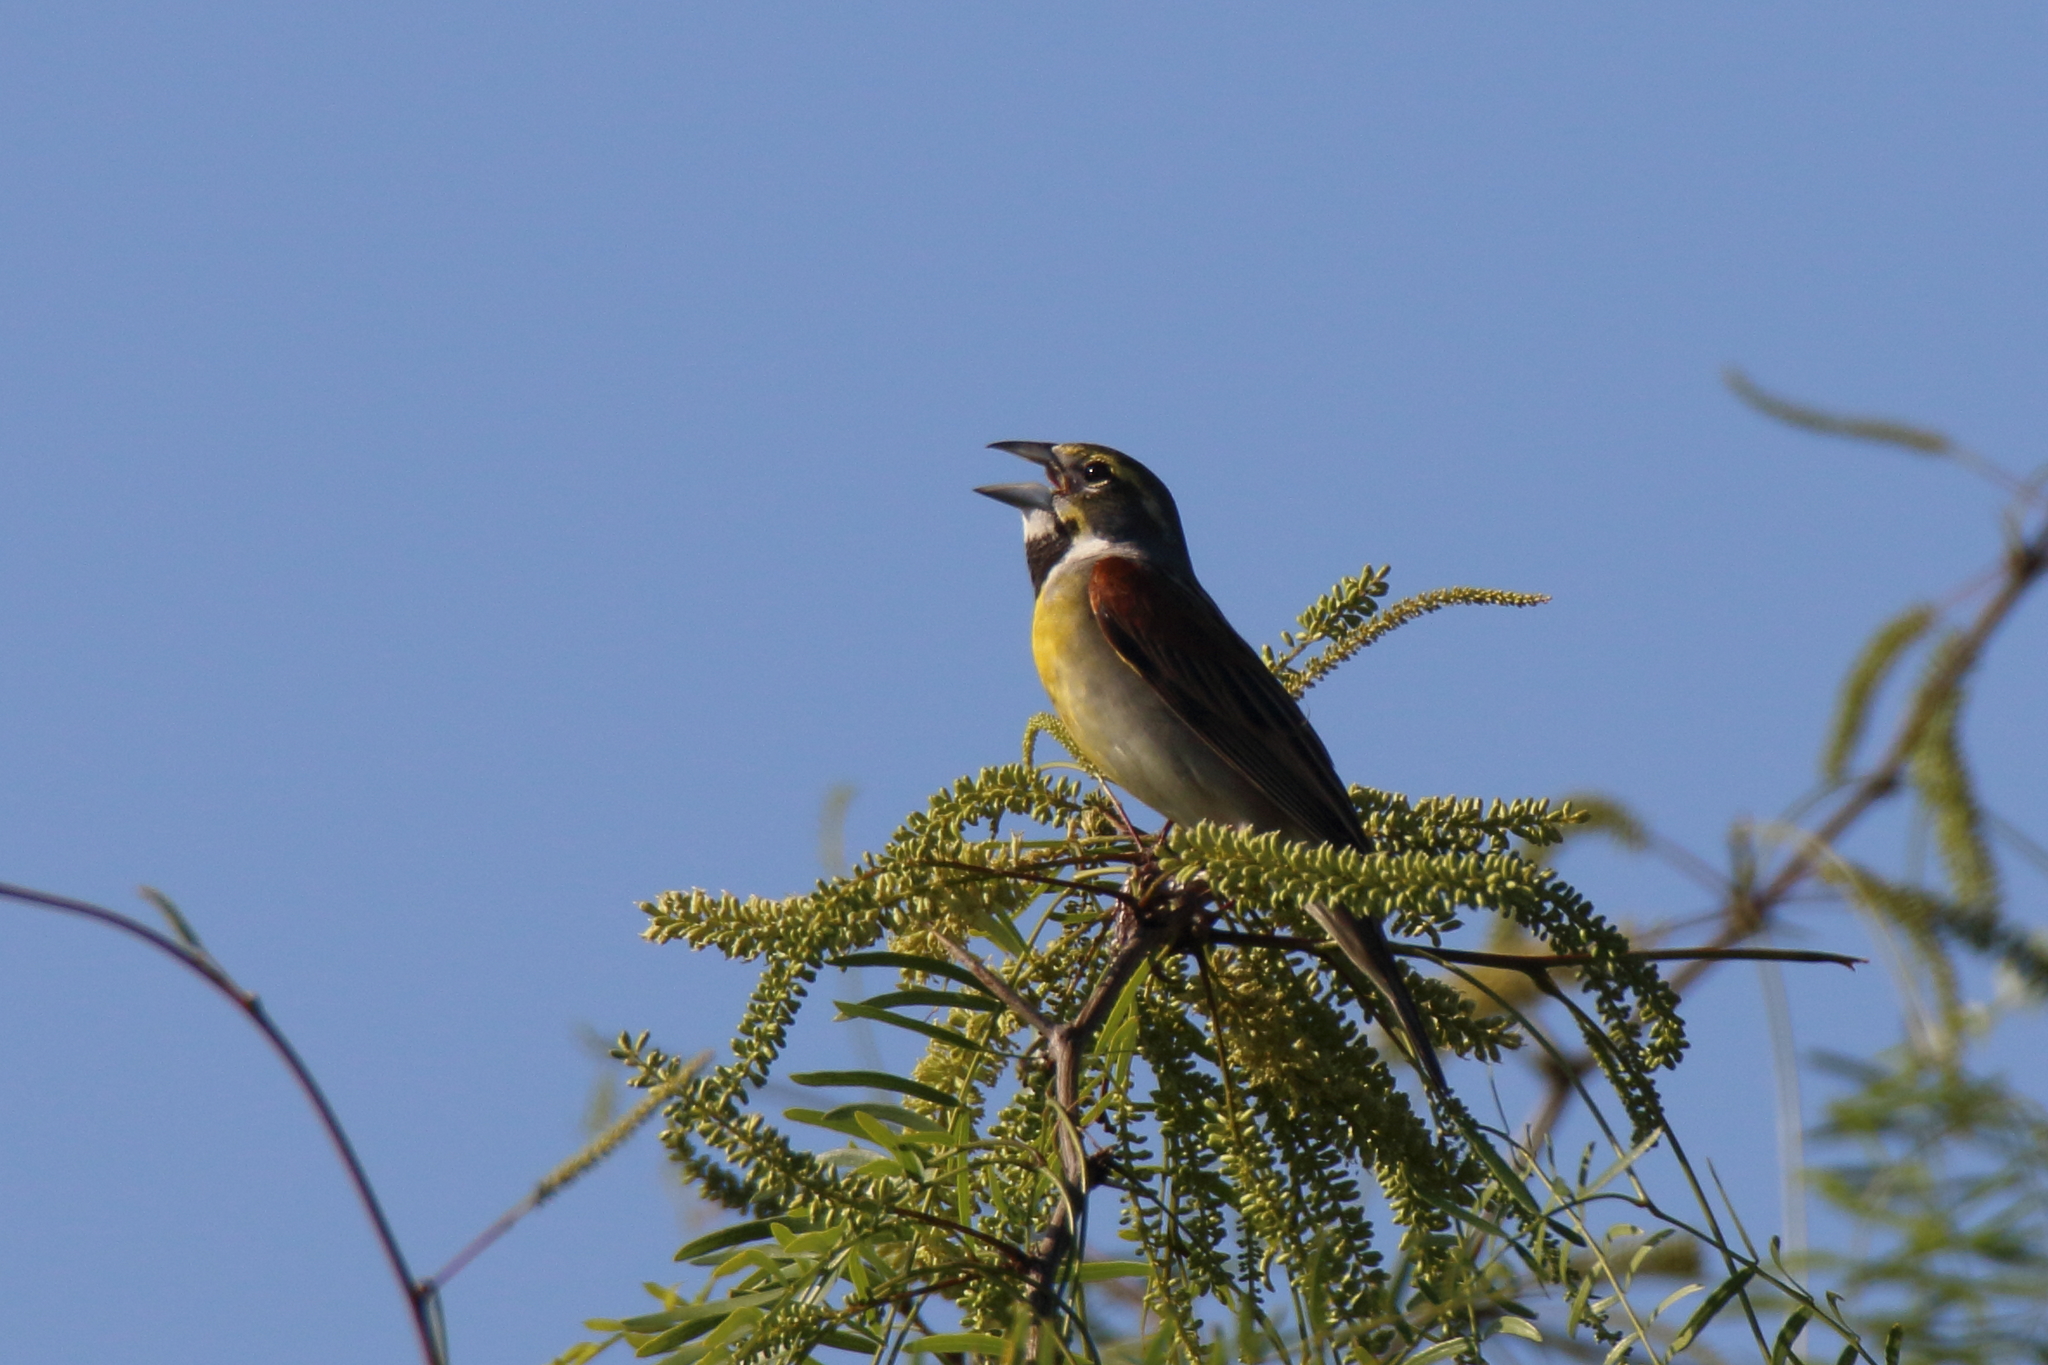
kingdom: Animalia
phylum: Chordata
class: Aves
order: Passeriformes
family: Cardinalidae
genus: Spiza
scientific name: Spiza americana
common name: Dickcissel
